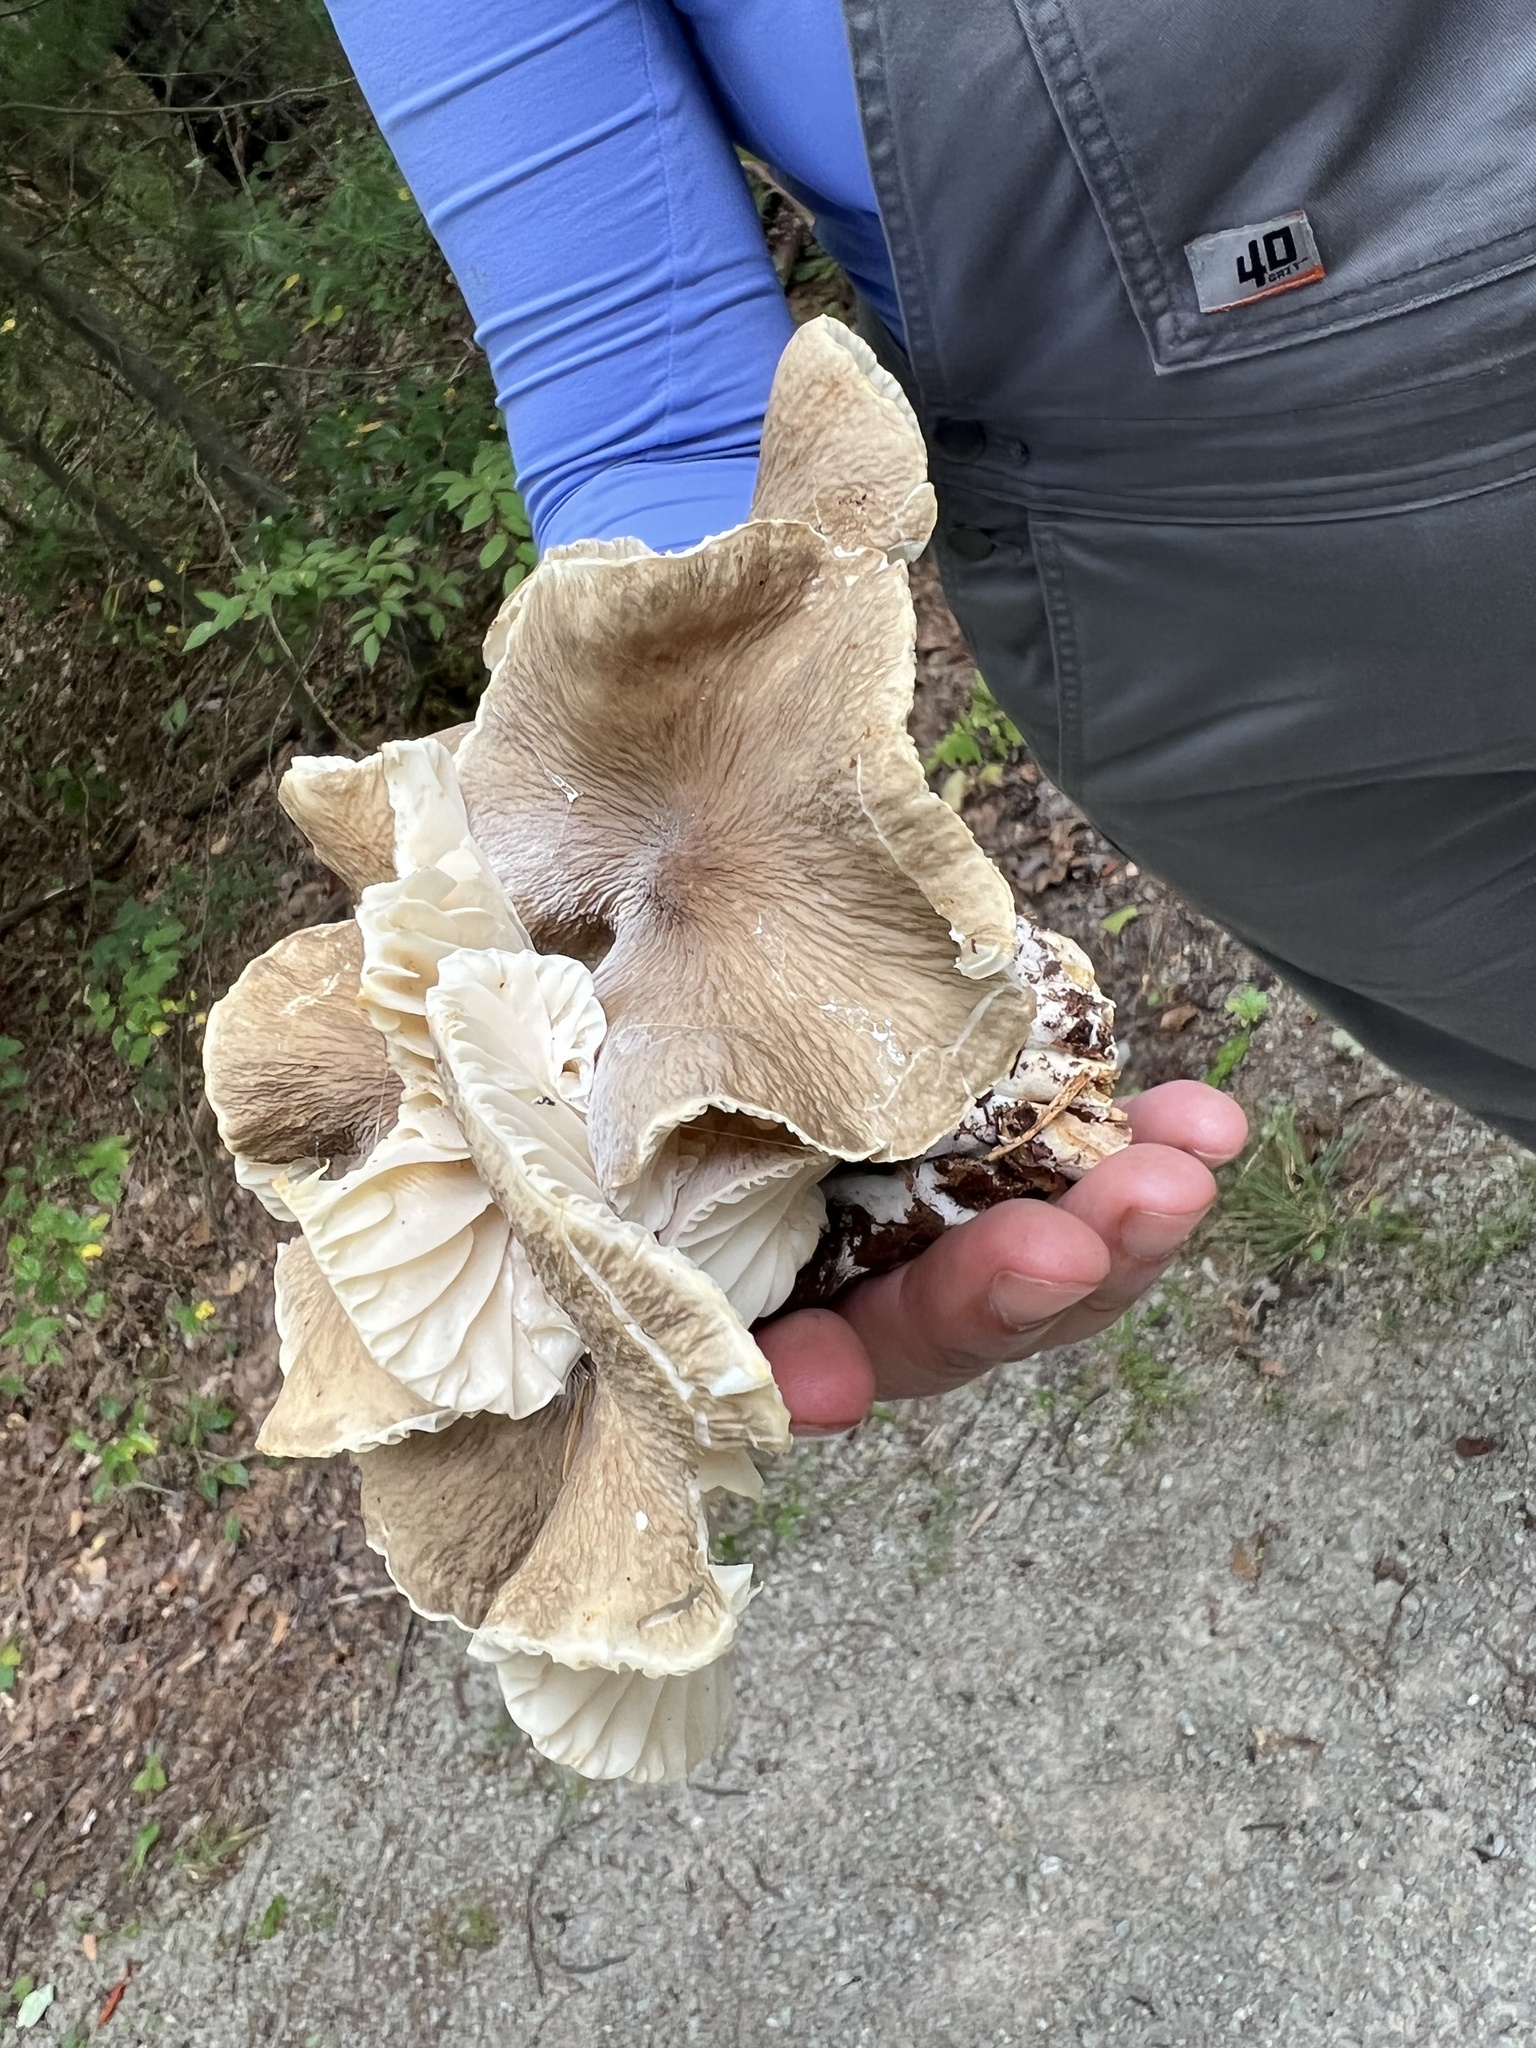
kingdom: Fungi
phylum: Basidiomycota
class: Agaricomycetes
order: Russulales
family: Russulaceae
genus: Lactarius
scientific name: Lactarius gerardii
